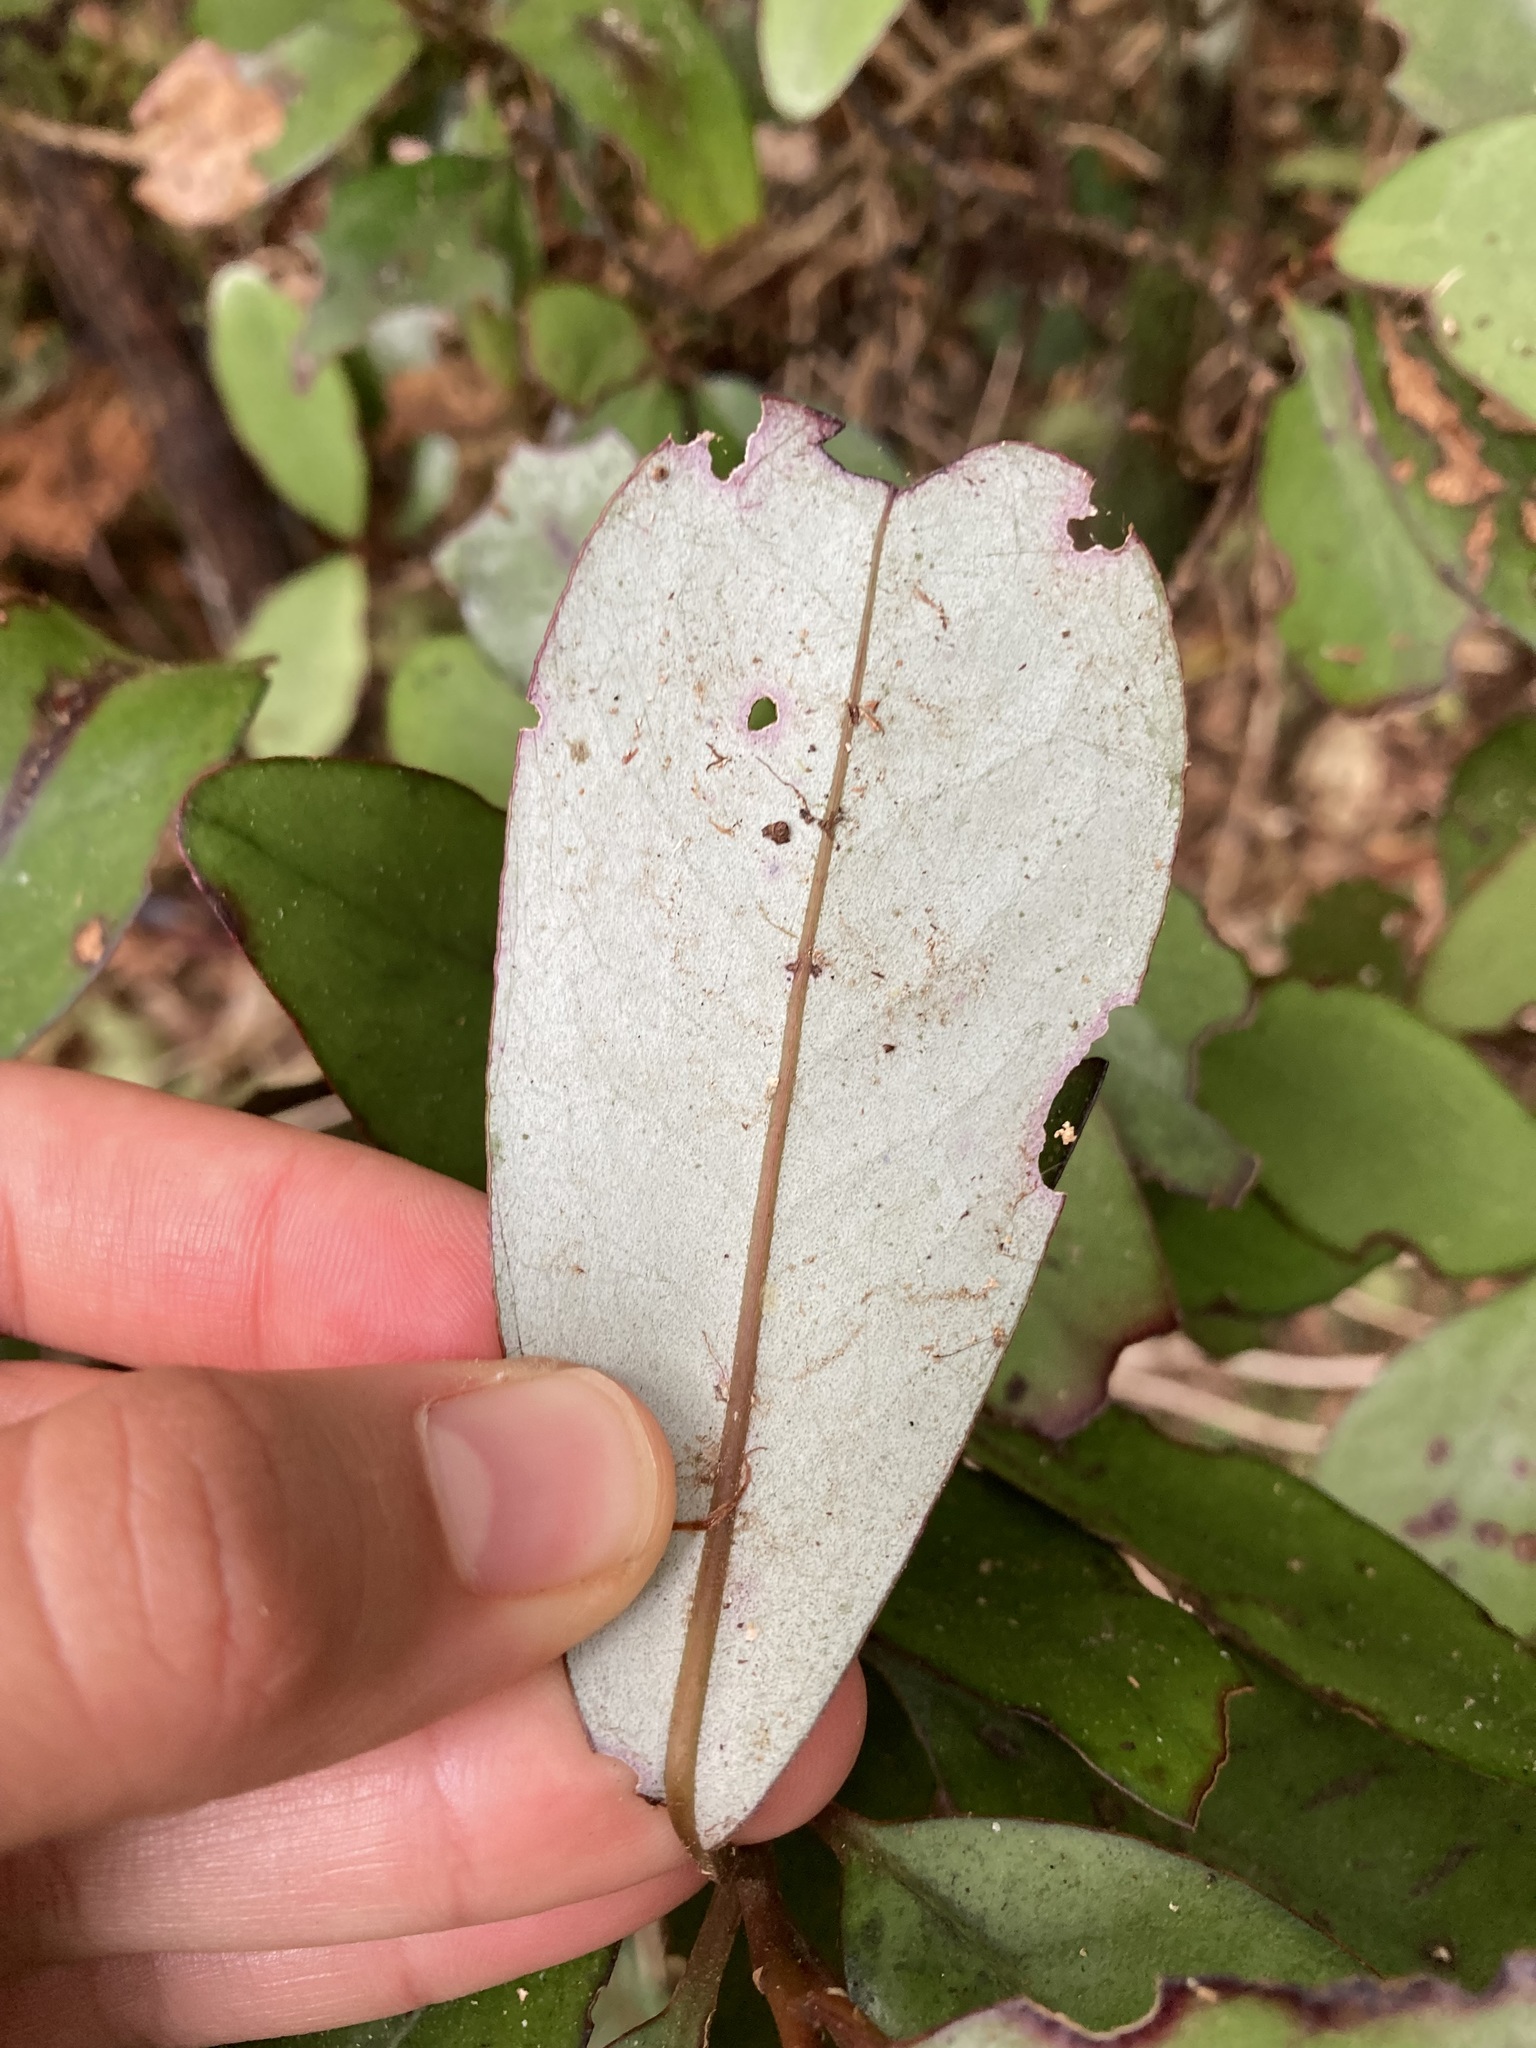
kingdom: Plantae
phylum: Tracheophyta
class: Magnoliopsida
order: Canellales
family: Winteraceae
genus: Pseudowintera
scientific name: Pseudowintera colorata
